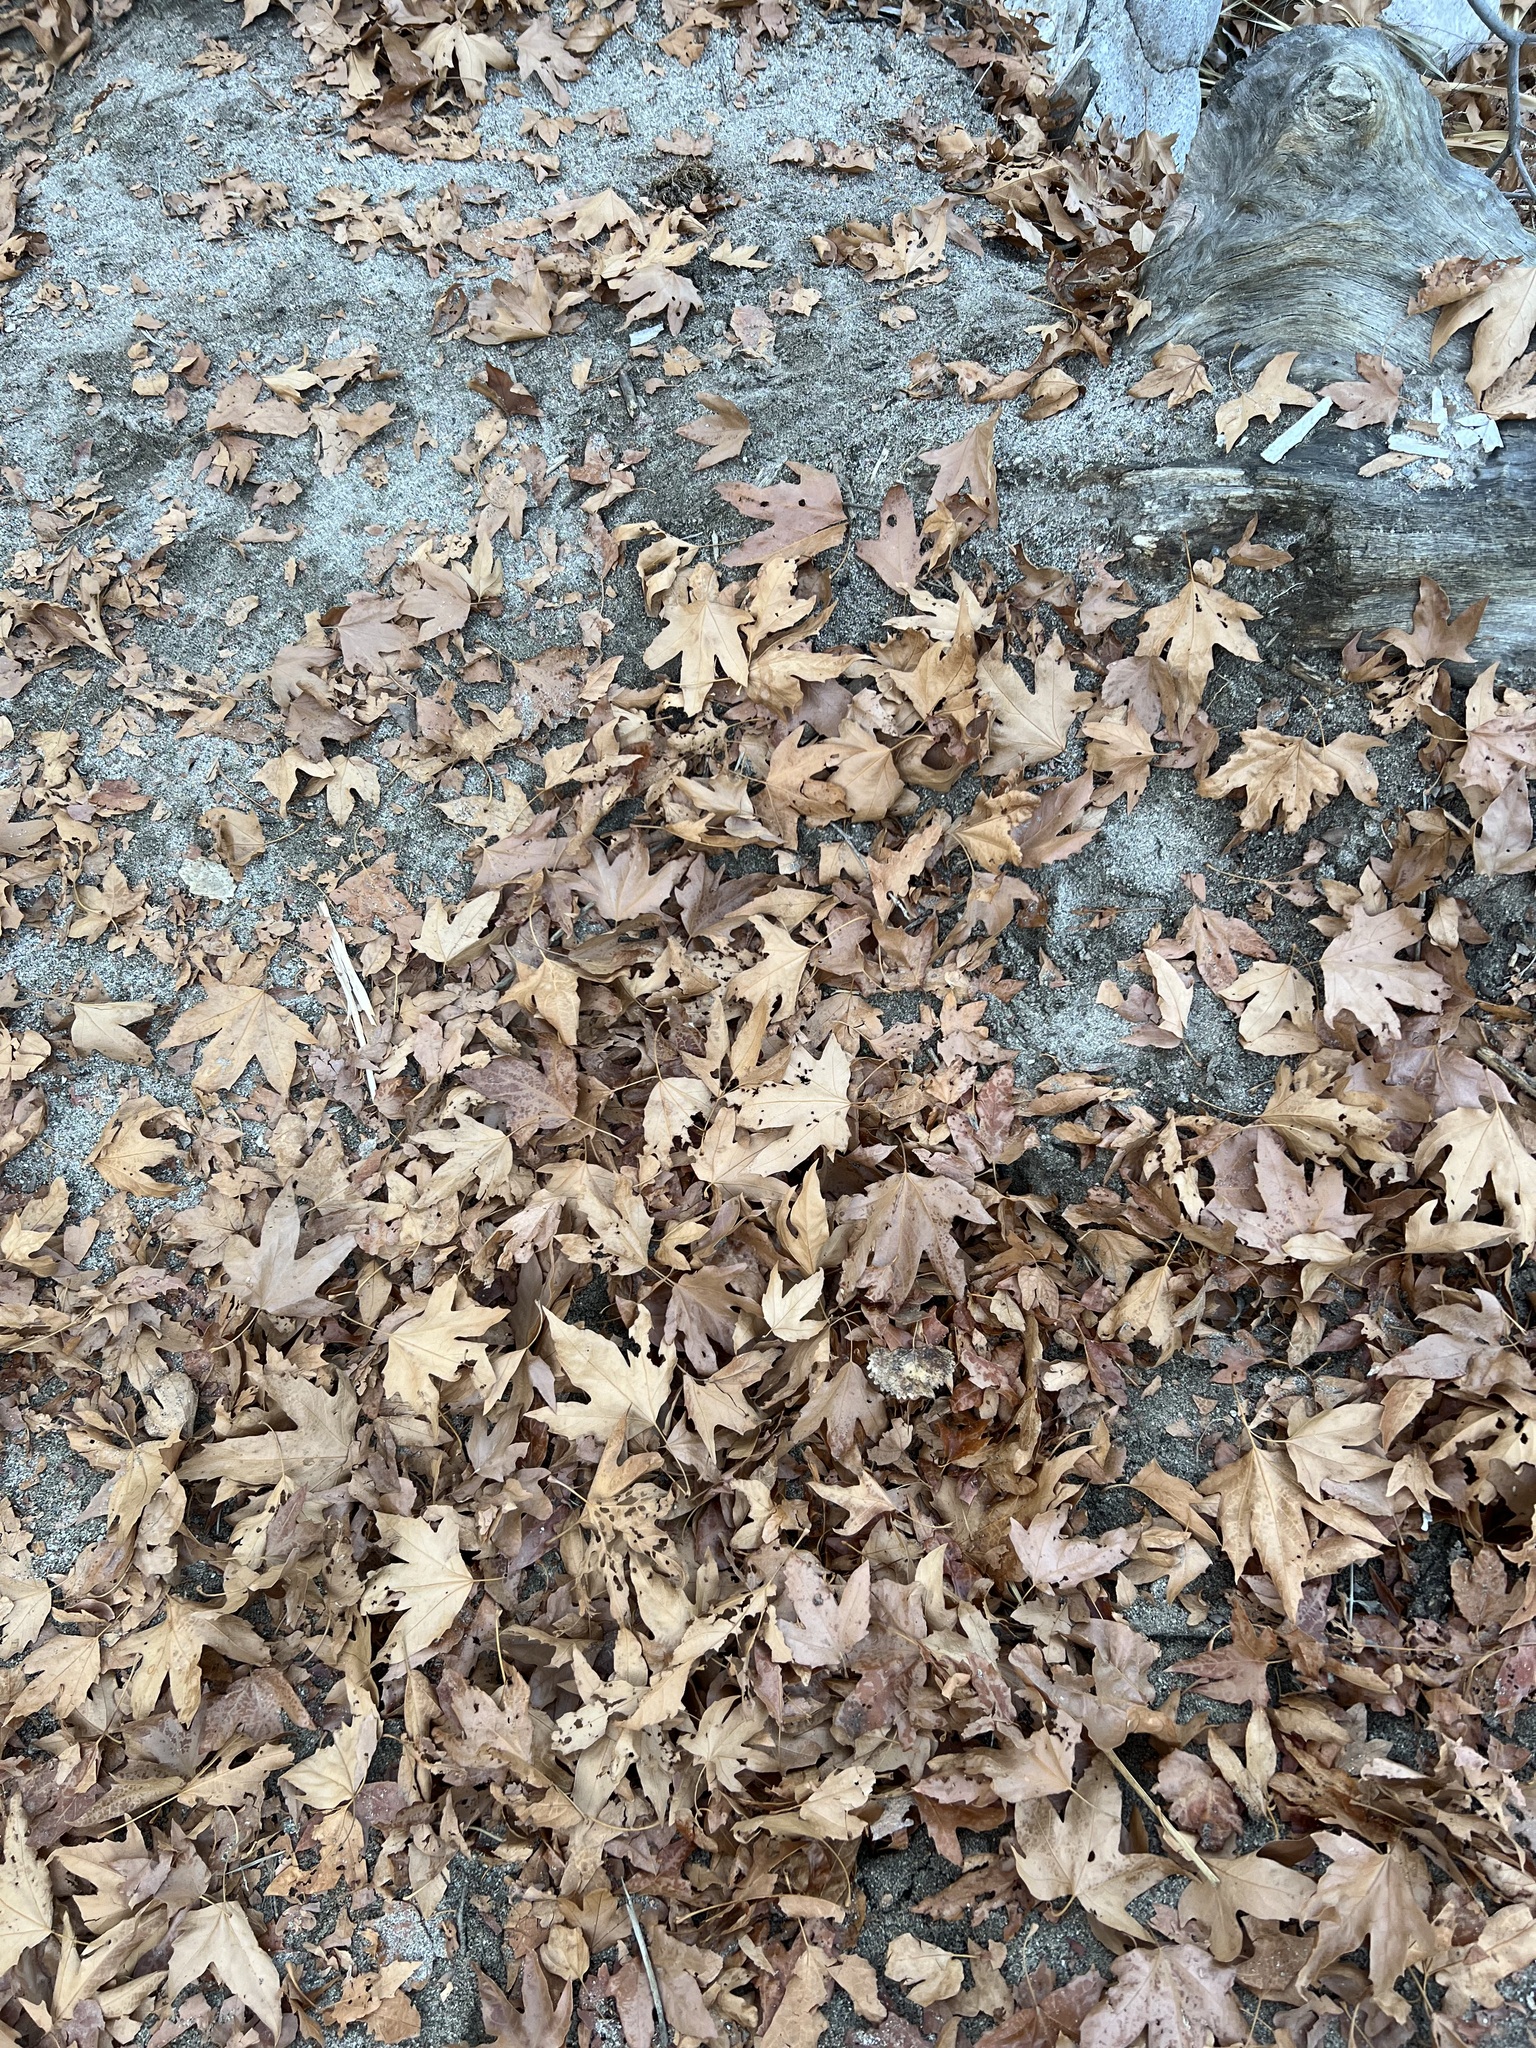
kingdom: Plantae
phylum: Tracheophyta
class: Magnoliopsida
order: Proteales
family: Platanaceae
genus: Platanus
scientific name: Platanus racemosa
